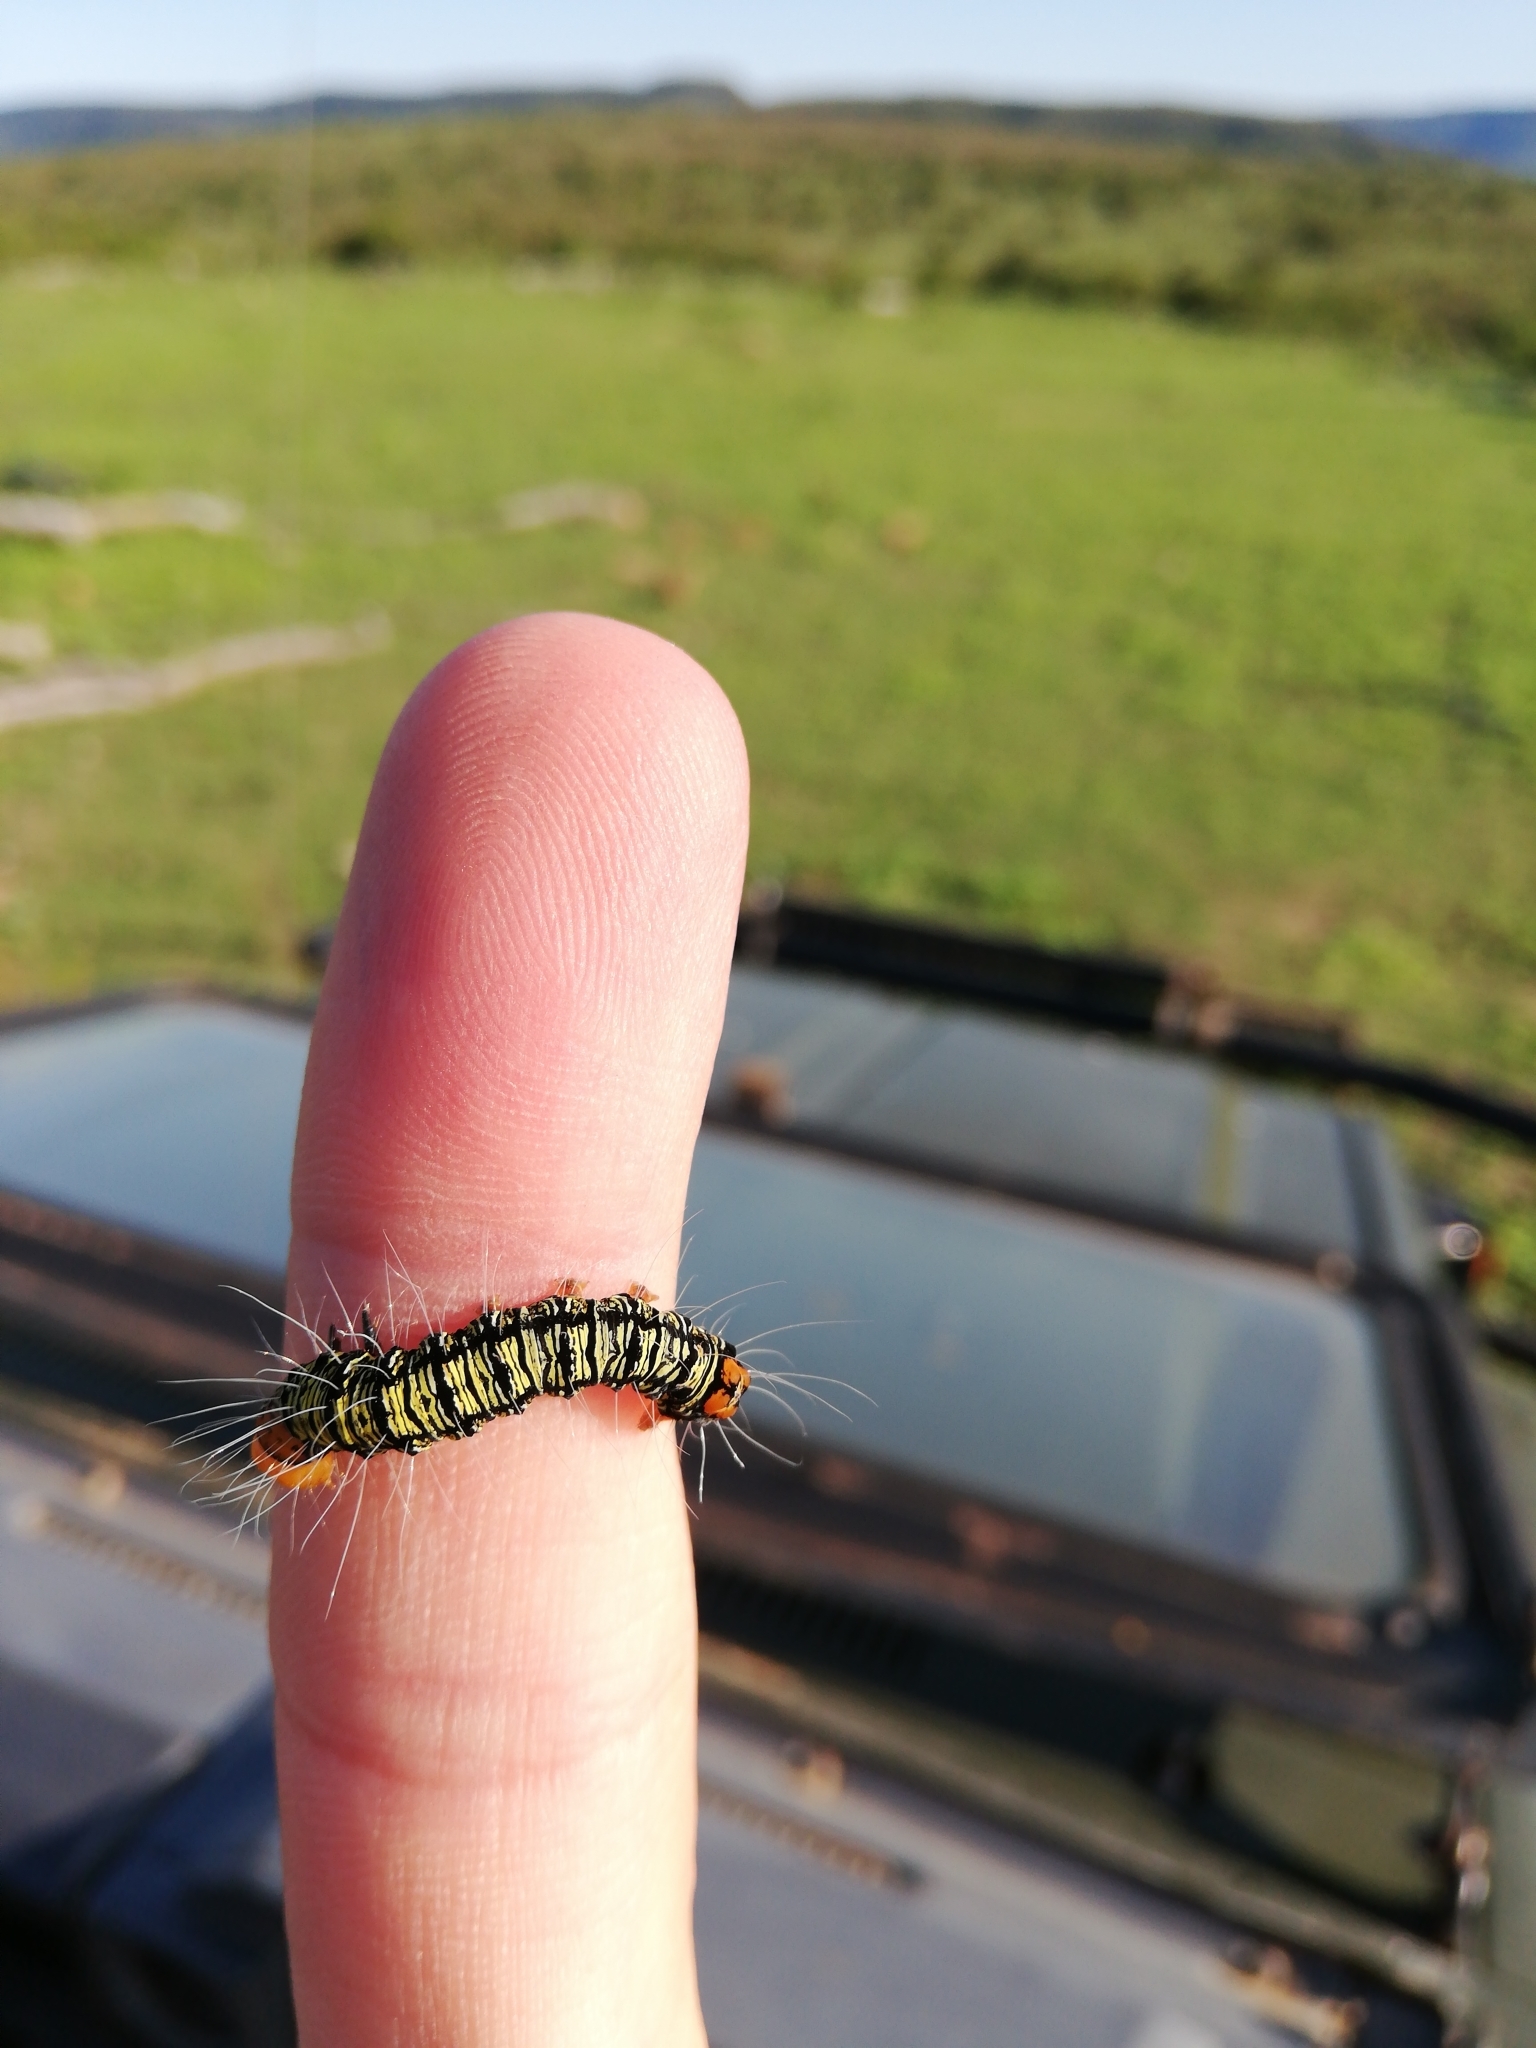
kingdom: Animalia
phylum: Arthropoda
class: Insecta
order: Lepidoptera
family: Erebidae
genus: Asota
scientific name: Asota speciosa
